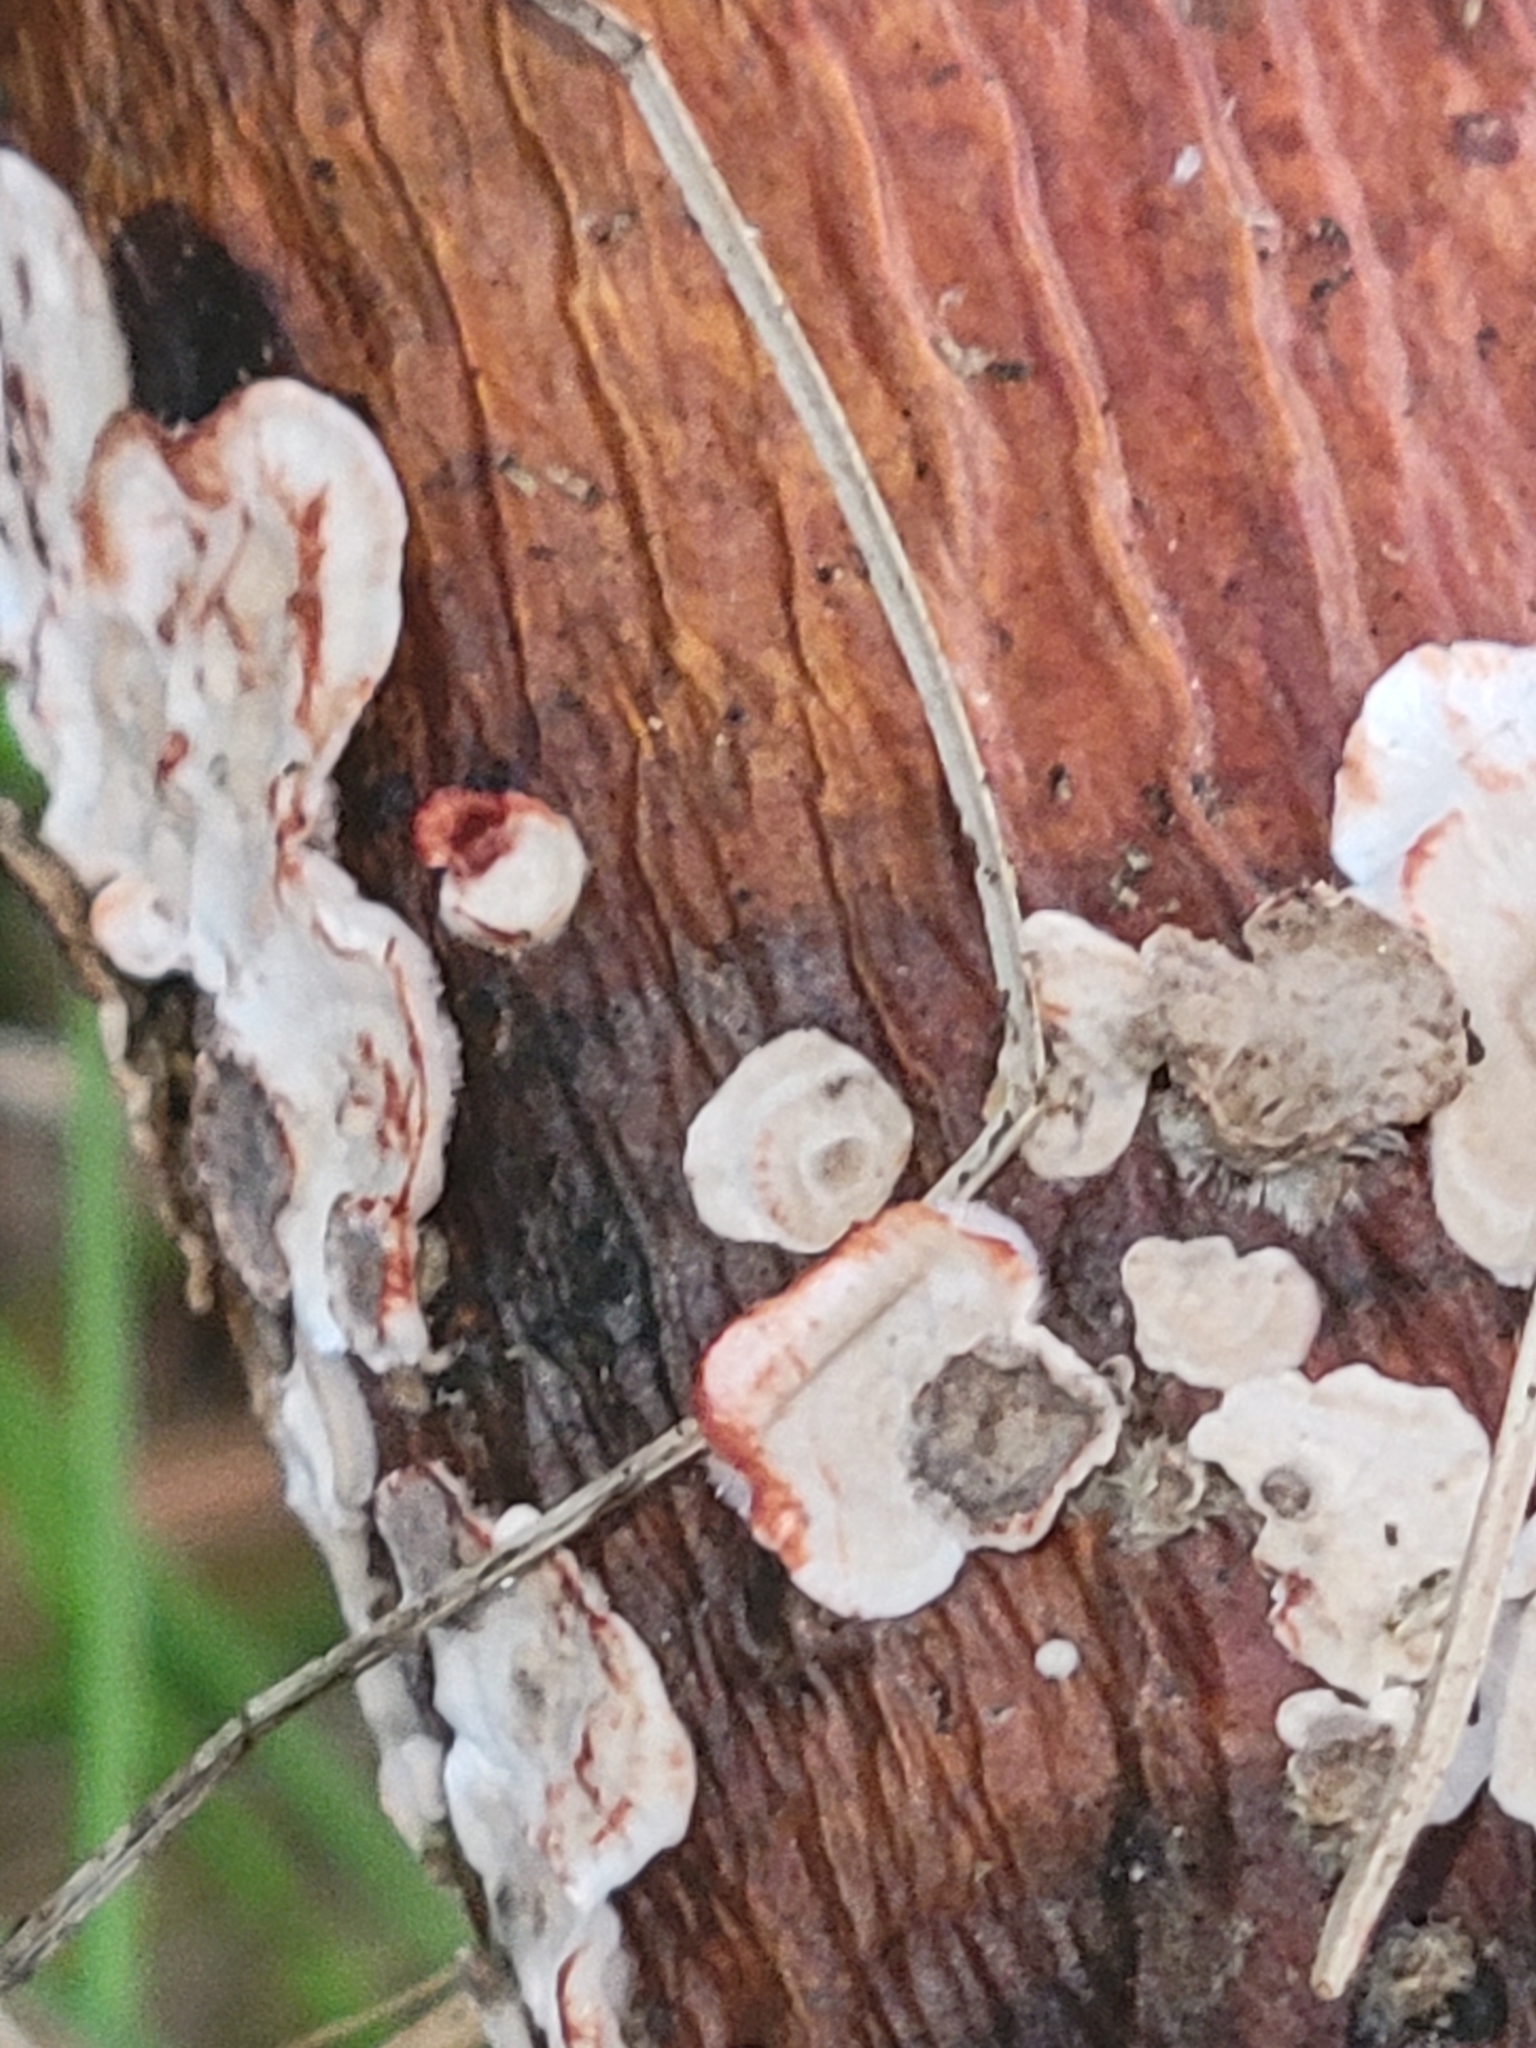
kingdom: Fungi
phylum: Basidiomycota
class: Agaricomycetes
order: Russulales
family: Stereaceae
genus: Stereum
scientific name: Stereum sanguinolentum
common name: Bleeding conifer crust
